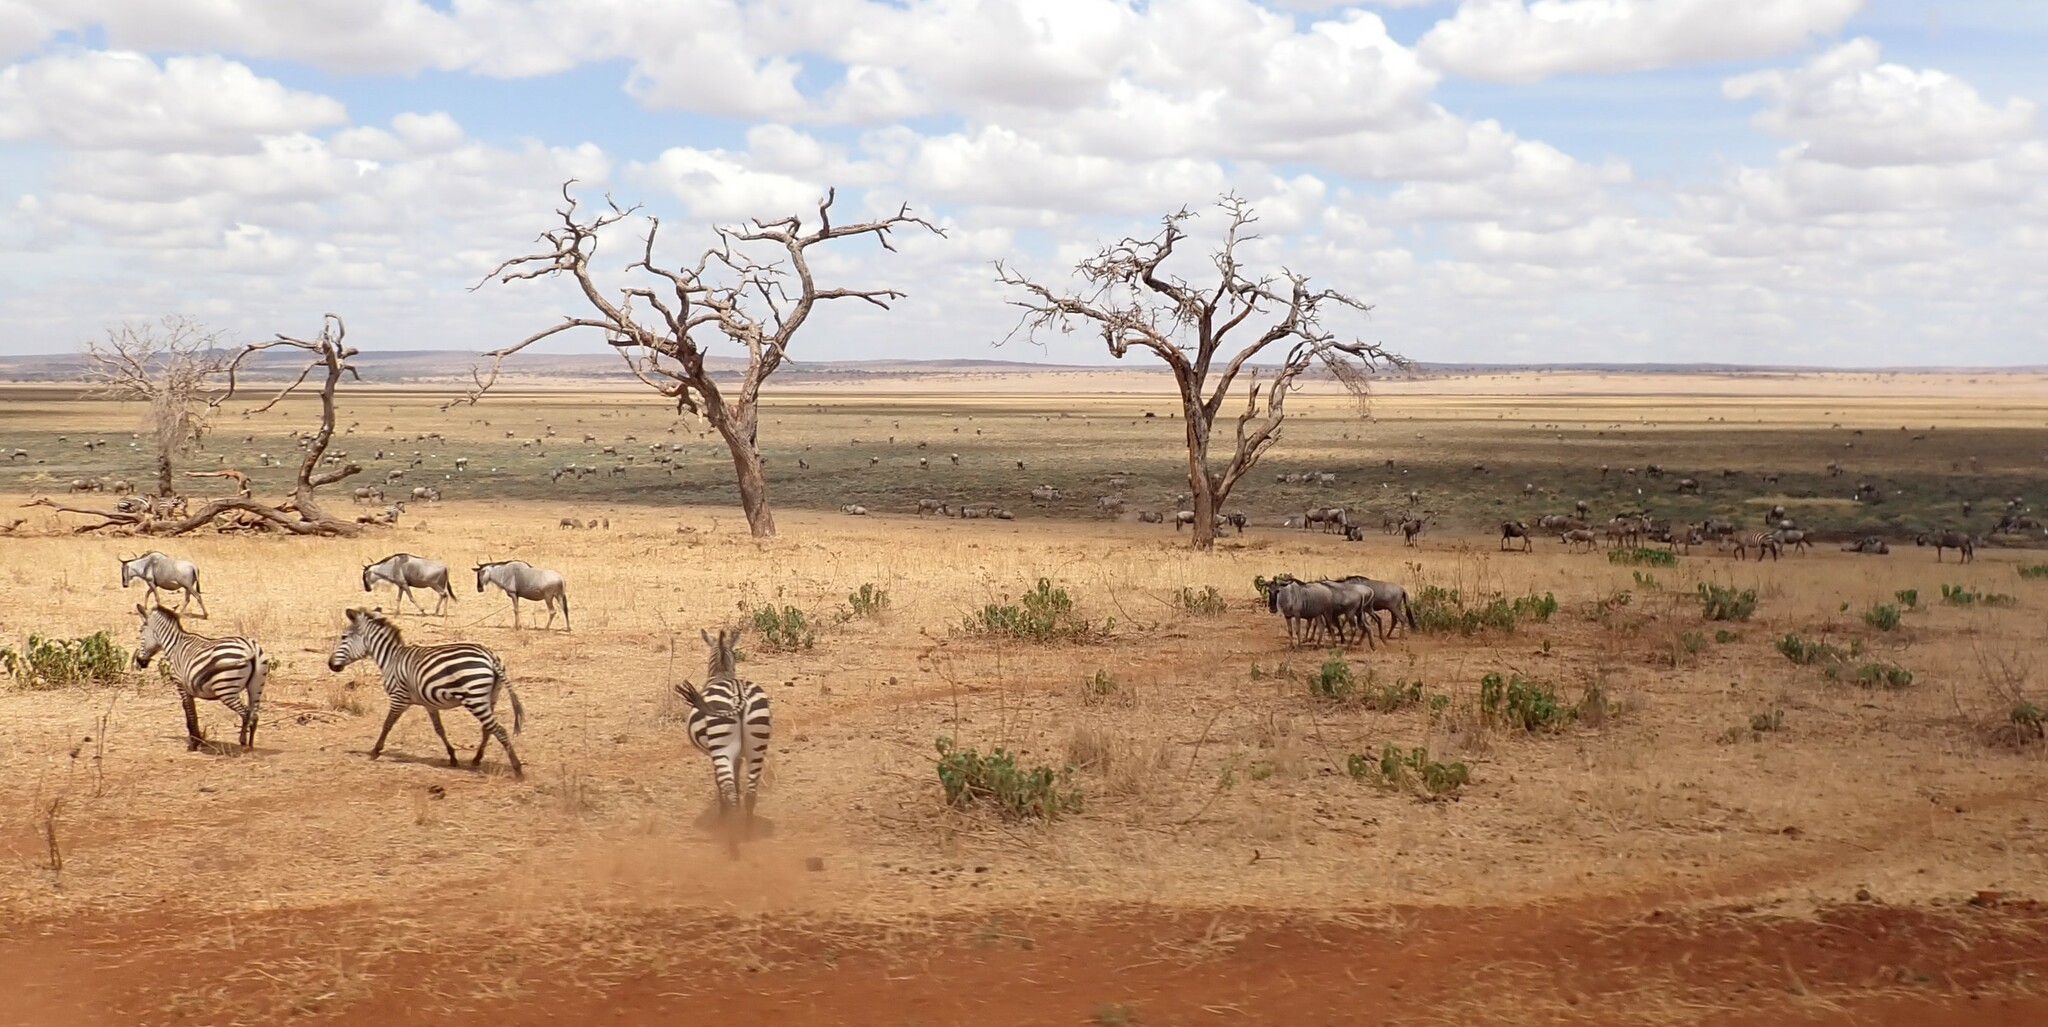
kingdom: Animalia
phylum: Chordata
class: Mammalia
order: Artiodactyla
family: Bovidae
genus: Connochaetes
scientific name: Connochaetes taurinus
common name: Blue wildebeest
